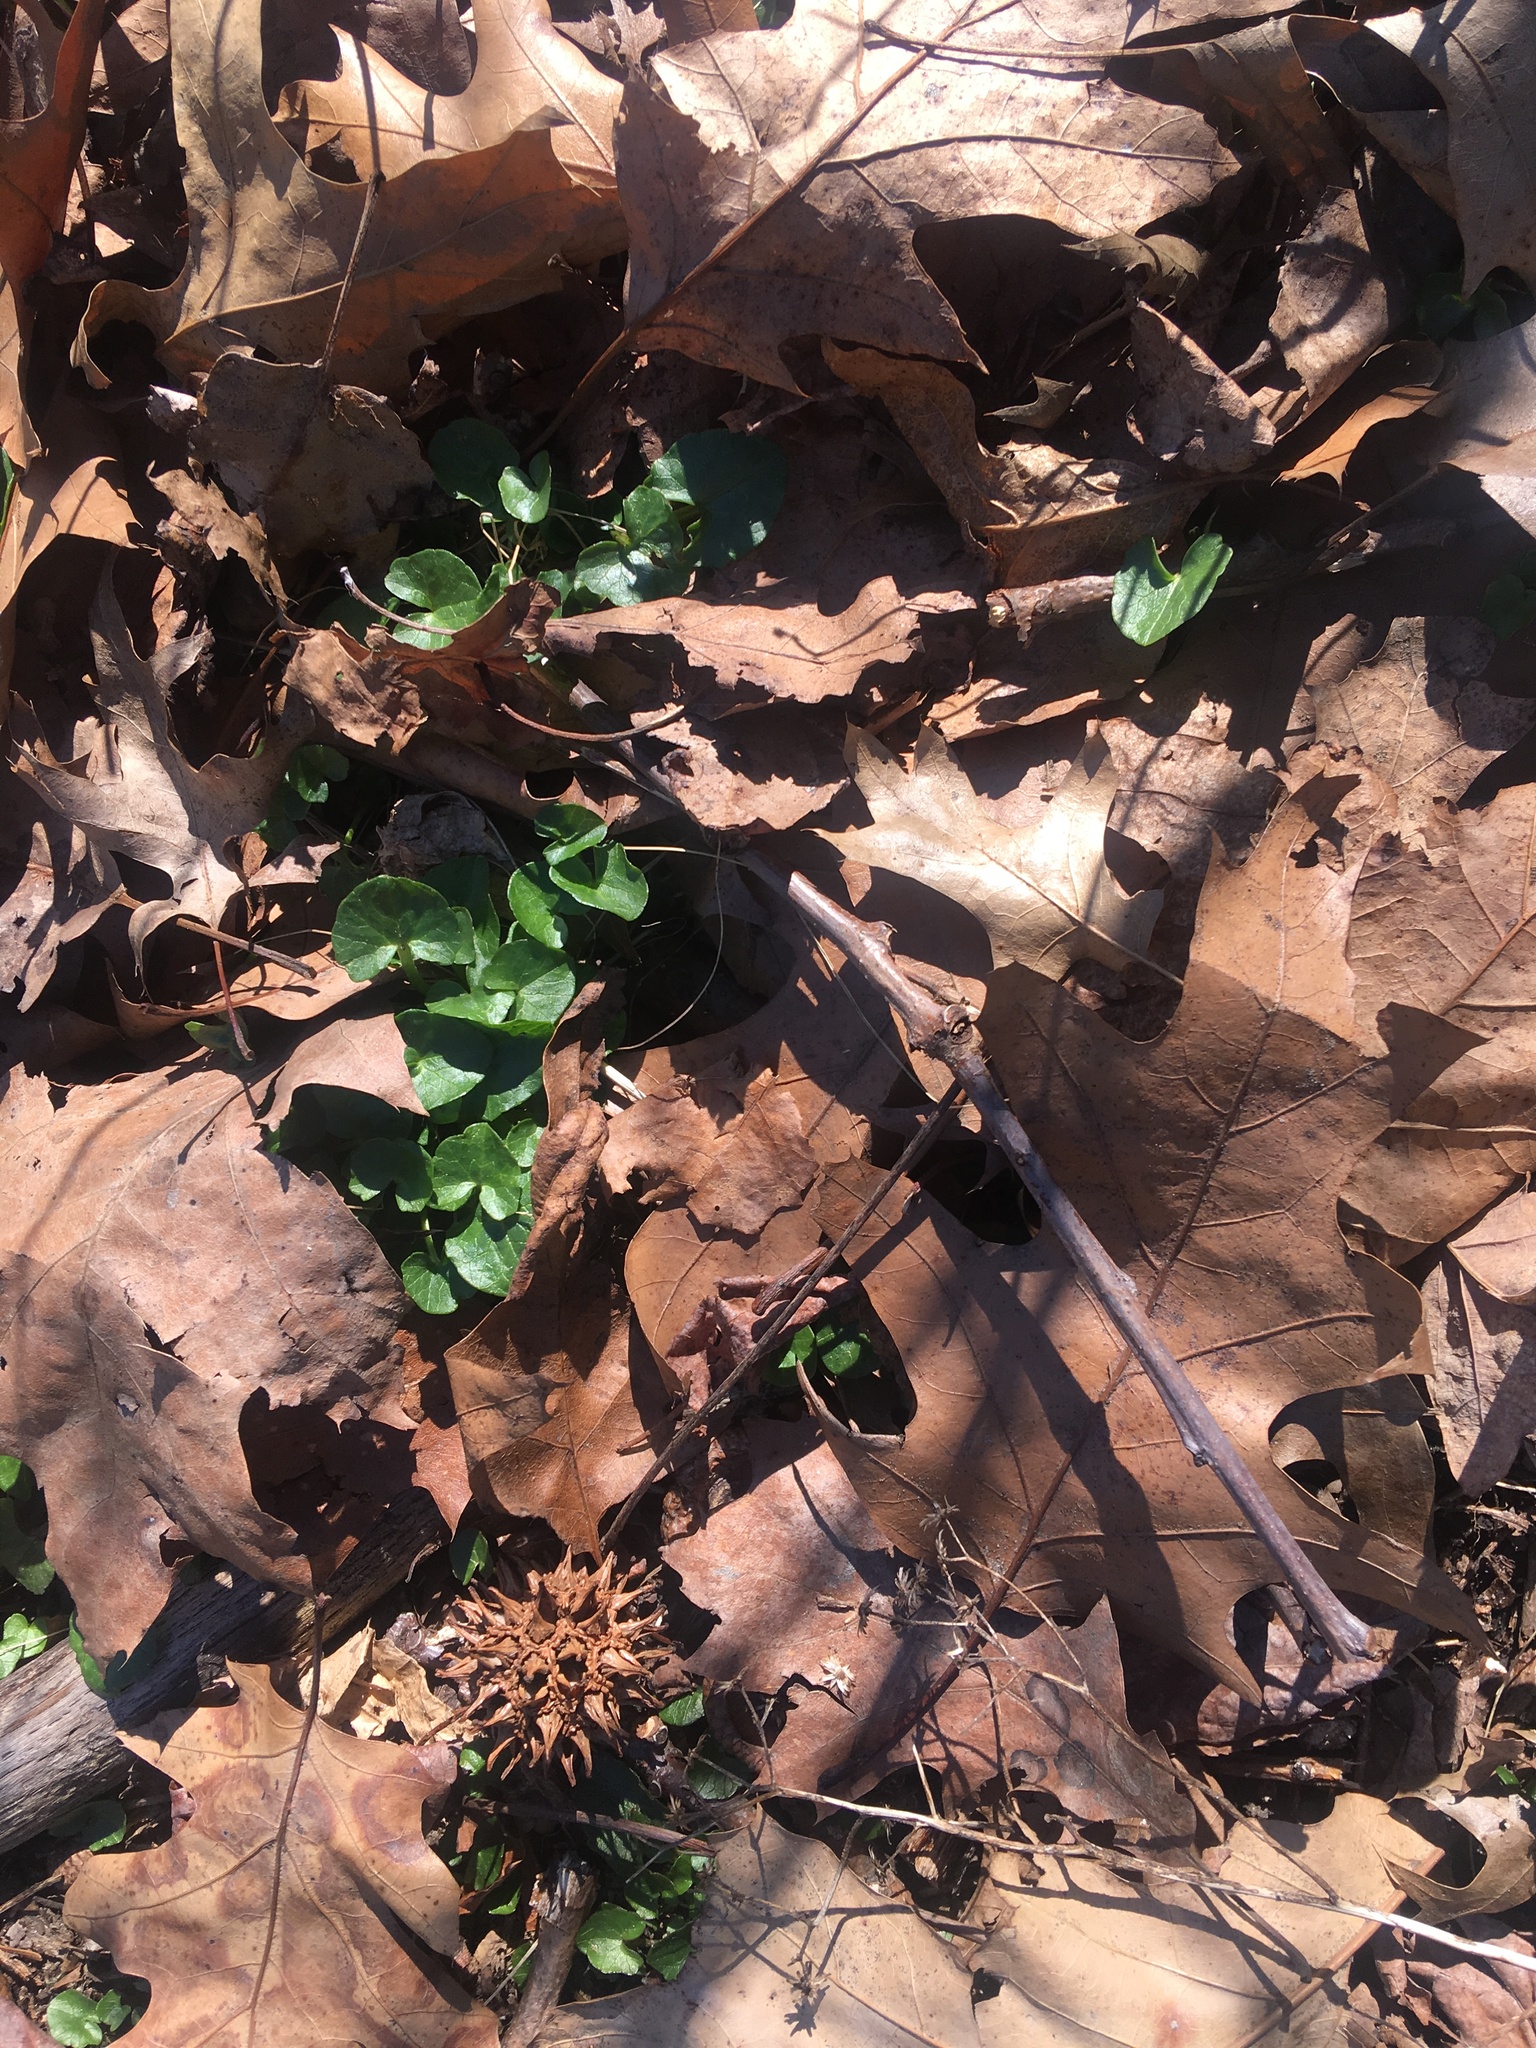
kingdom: Plantae
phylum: Tracheophyta
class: Magnoliopsida
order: Ranunculales
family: Ranunculaceae
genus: Ficaria
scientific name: Ficaria verna
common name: Lesser celandine
